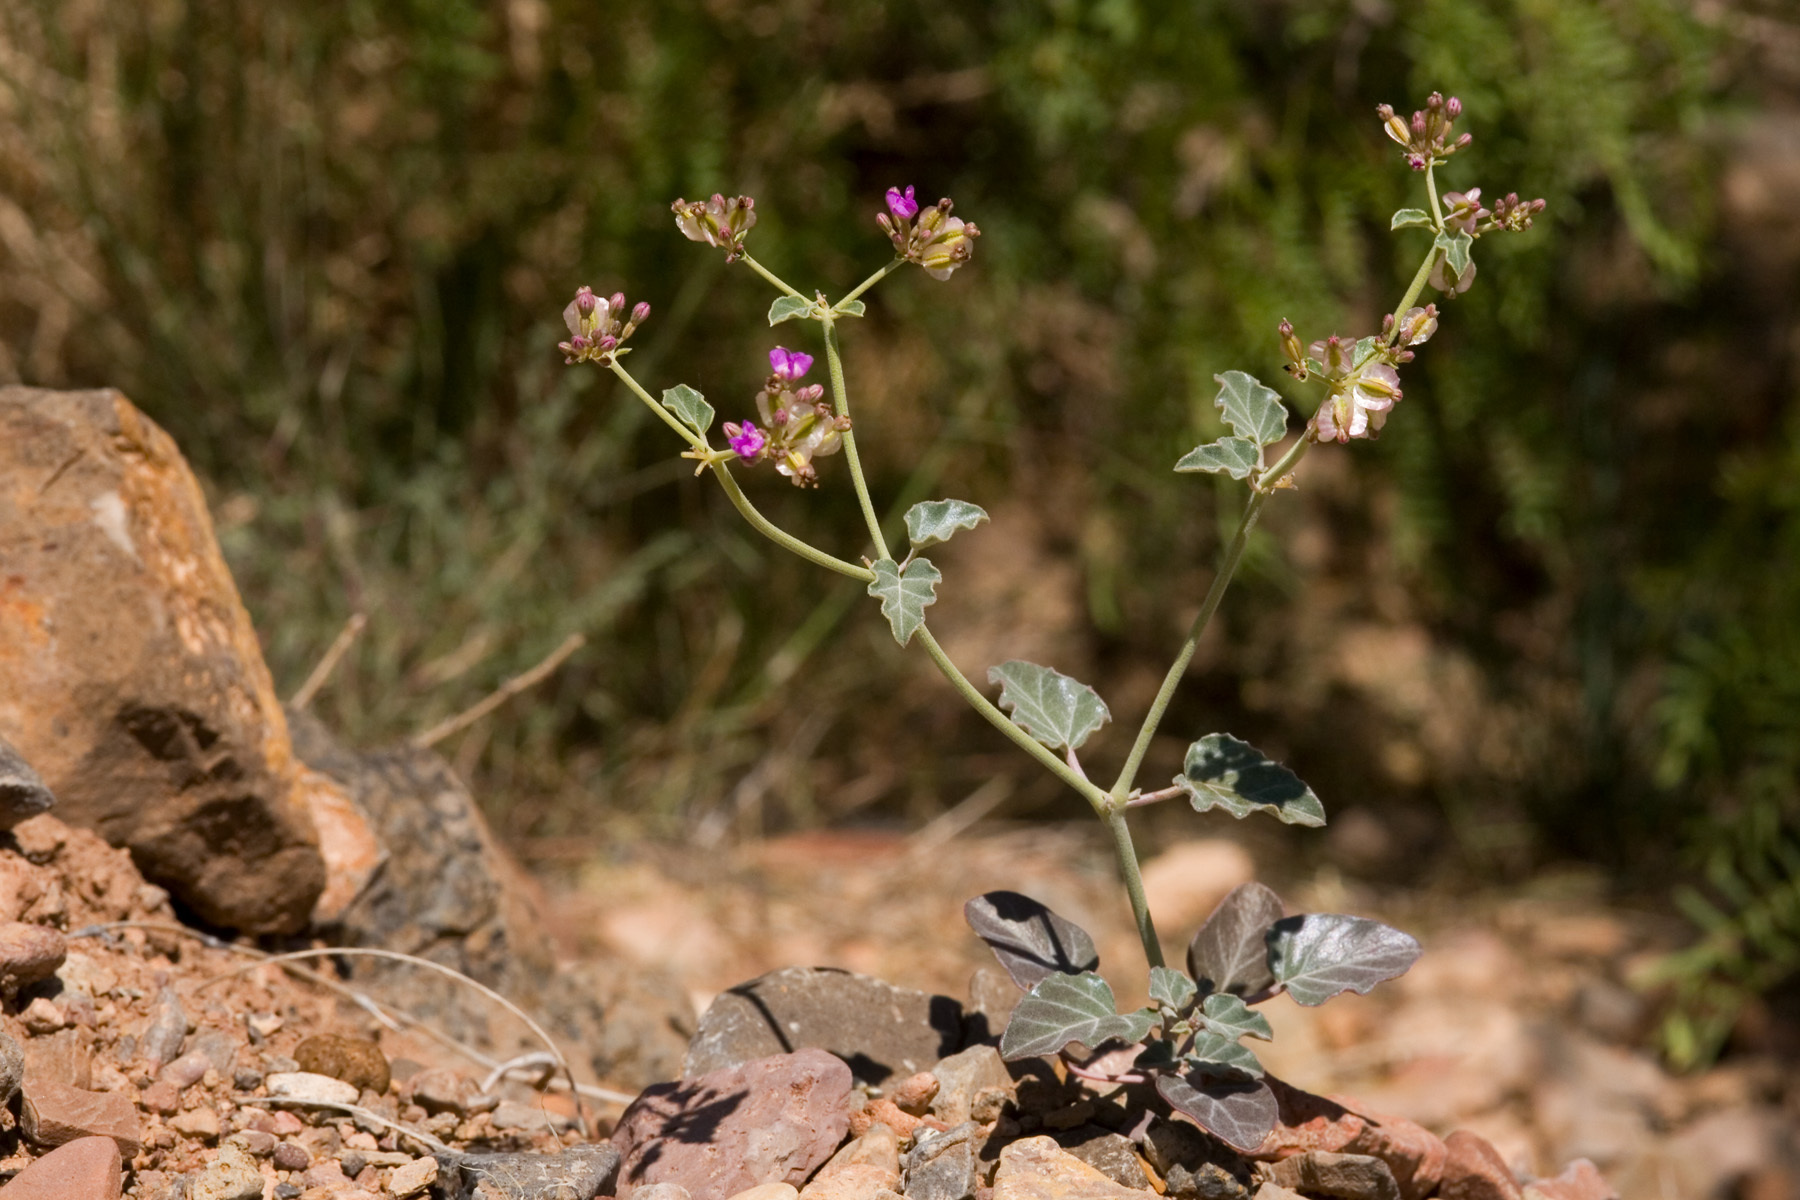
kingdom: Plantae
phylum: Tracheophyta
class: Magnoliopsida
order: Caryophyllales
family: Nyctaginaceae
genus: Acleisanthes
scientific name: Acleisanthes chenopodioides
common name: Goosefoot moonpod
